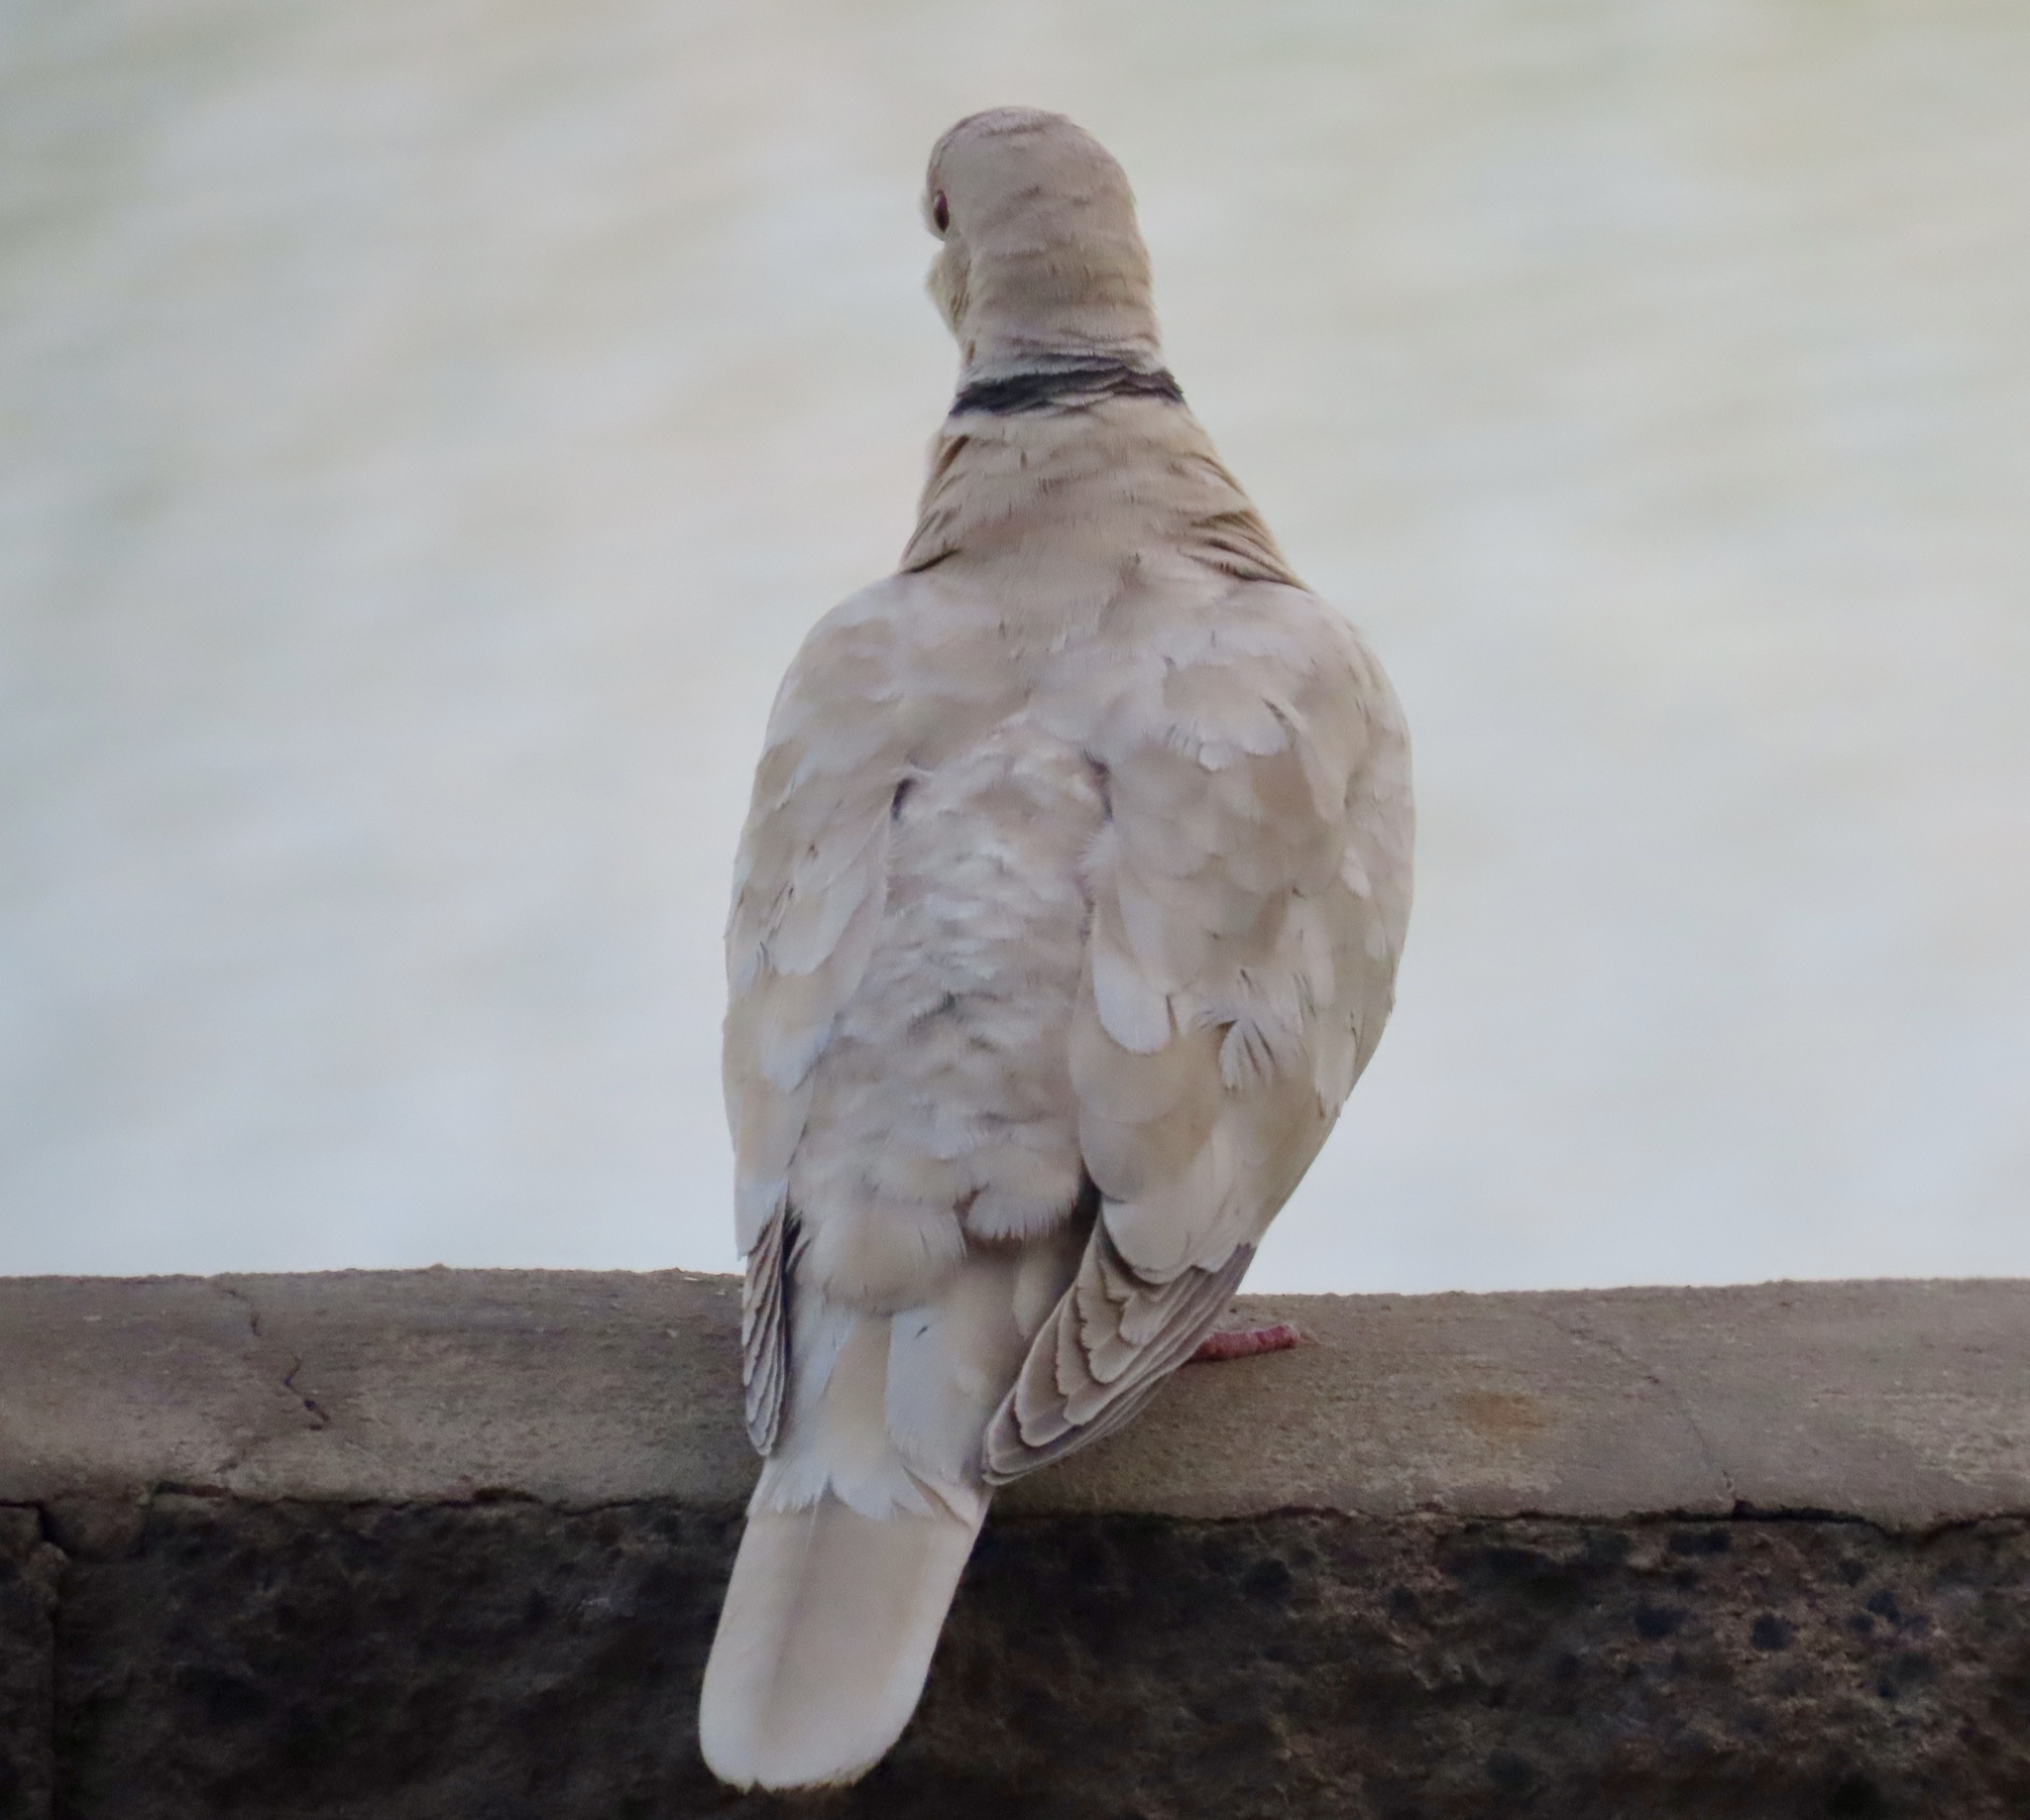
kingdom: Animalia
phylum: Chordata
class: Aves
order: Columbiformes
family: Columbidae
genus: Streptopelia
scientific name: Streptopelia decaocto
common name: Eurasian collared dove
